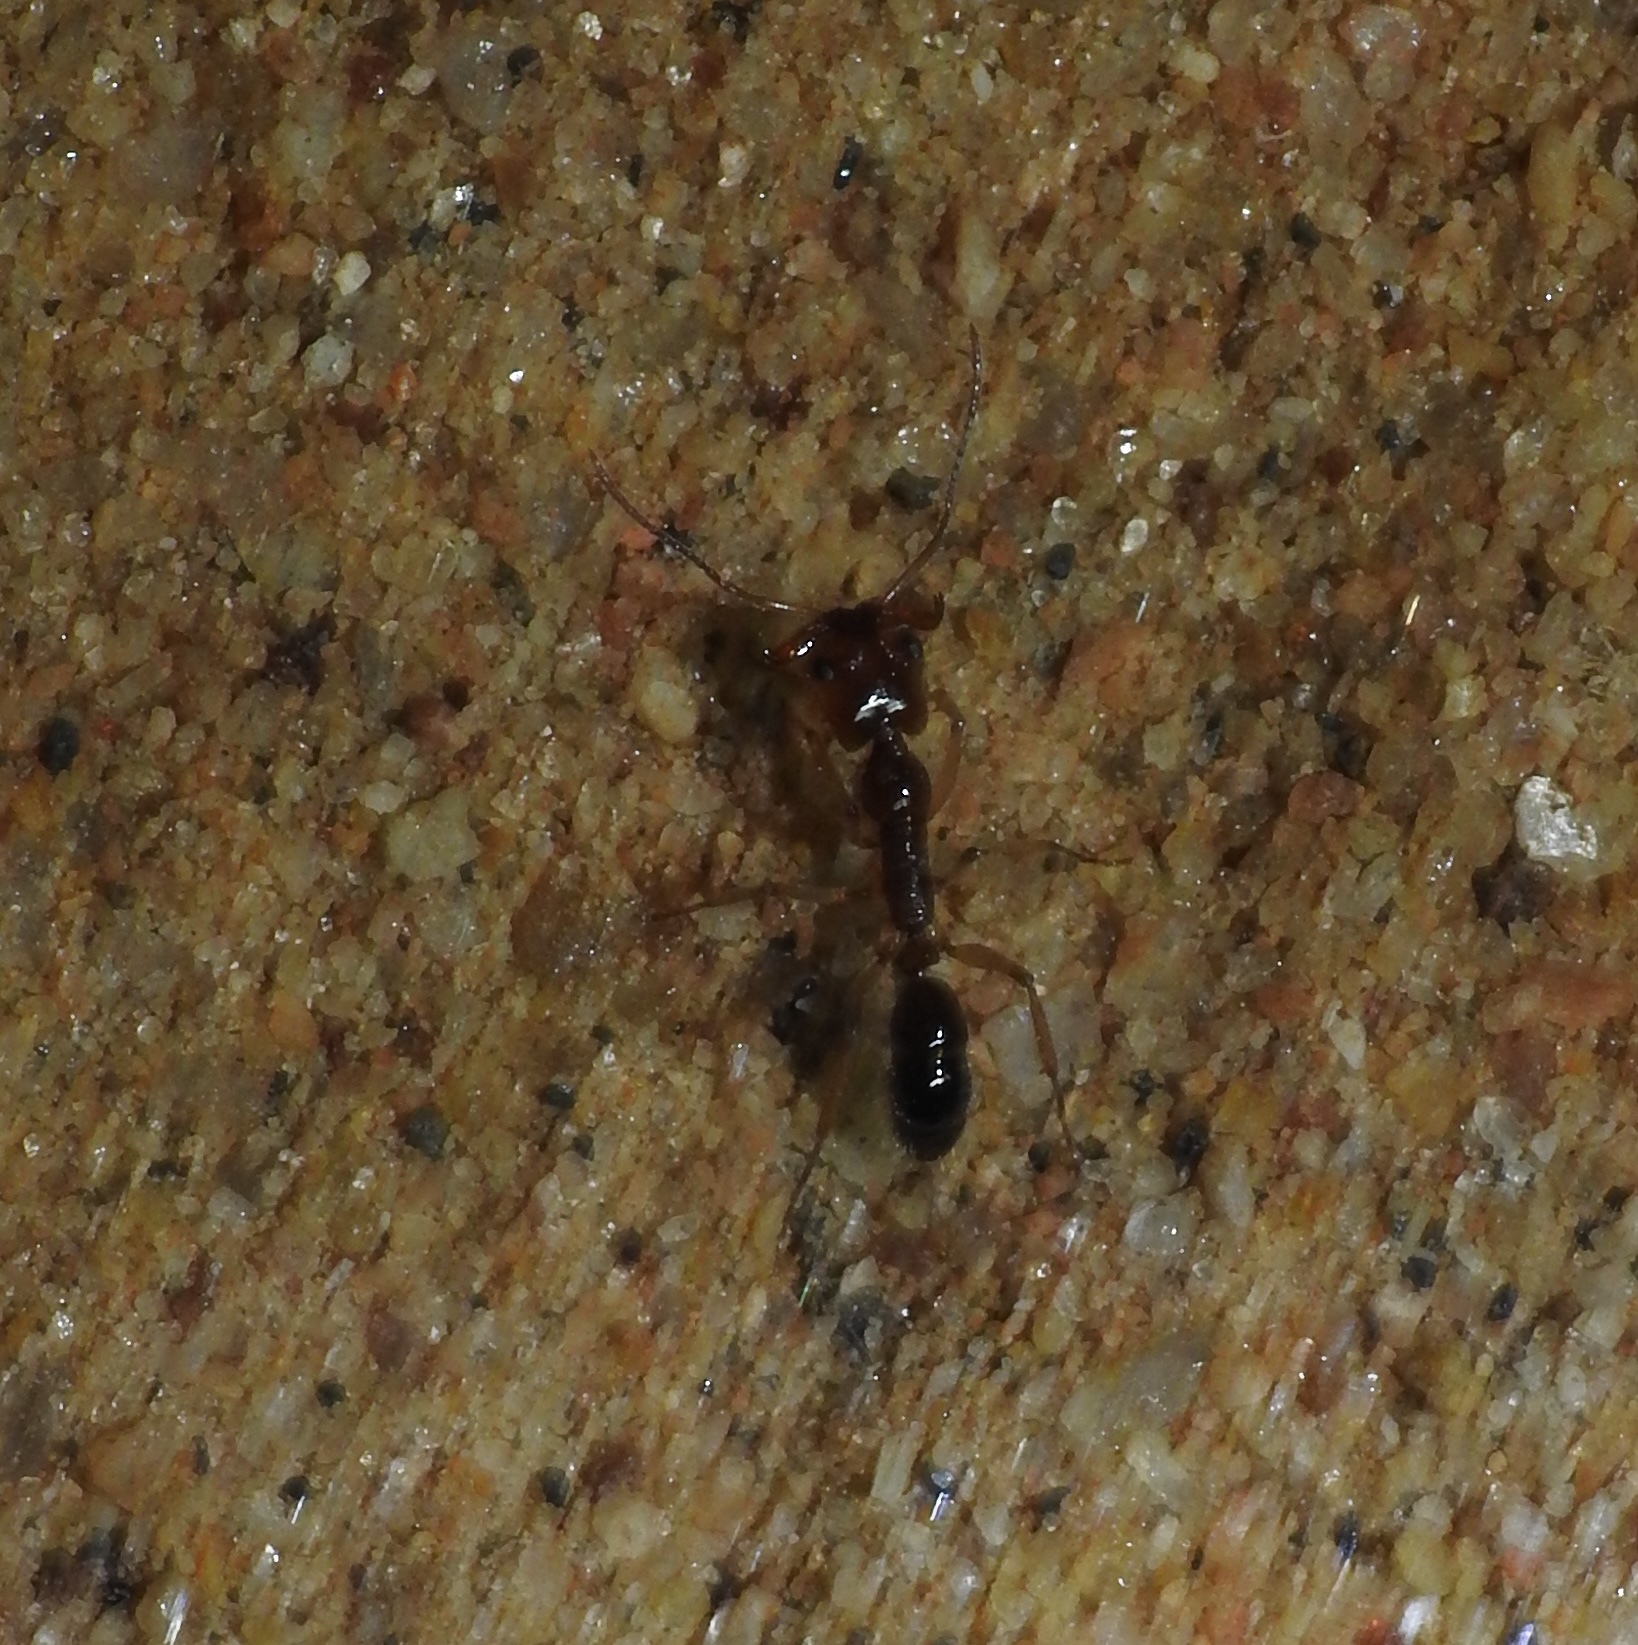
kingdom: Animalia
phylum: Arthropoda
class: Insecta
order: Hymenoptera
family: Formicidae
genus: Anochetus
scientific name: Anochetus rufus
